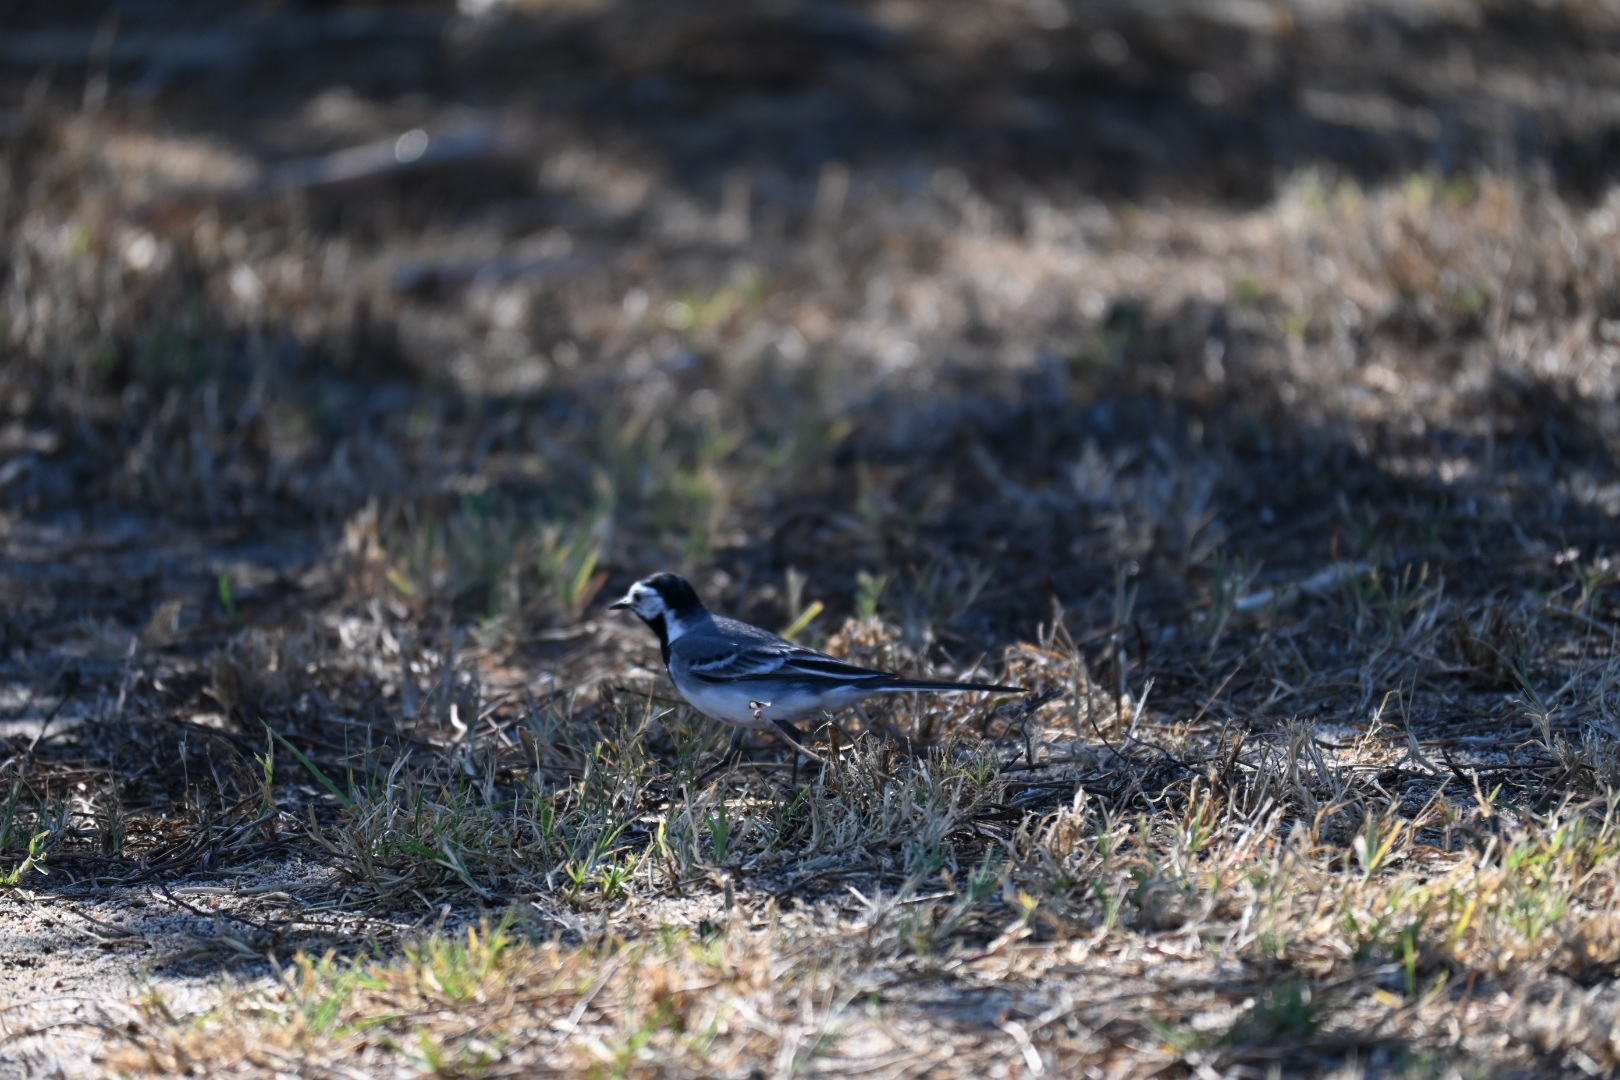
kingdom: Animalia
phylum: Chordata
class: Aves
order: Passeriformes
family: Motacillidae
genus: Motacilla
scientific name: Motacilla alba
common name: White wagtail
